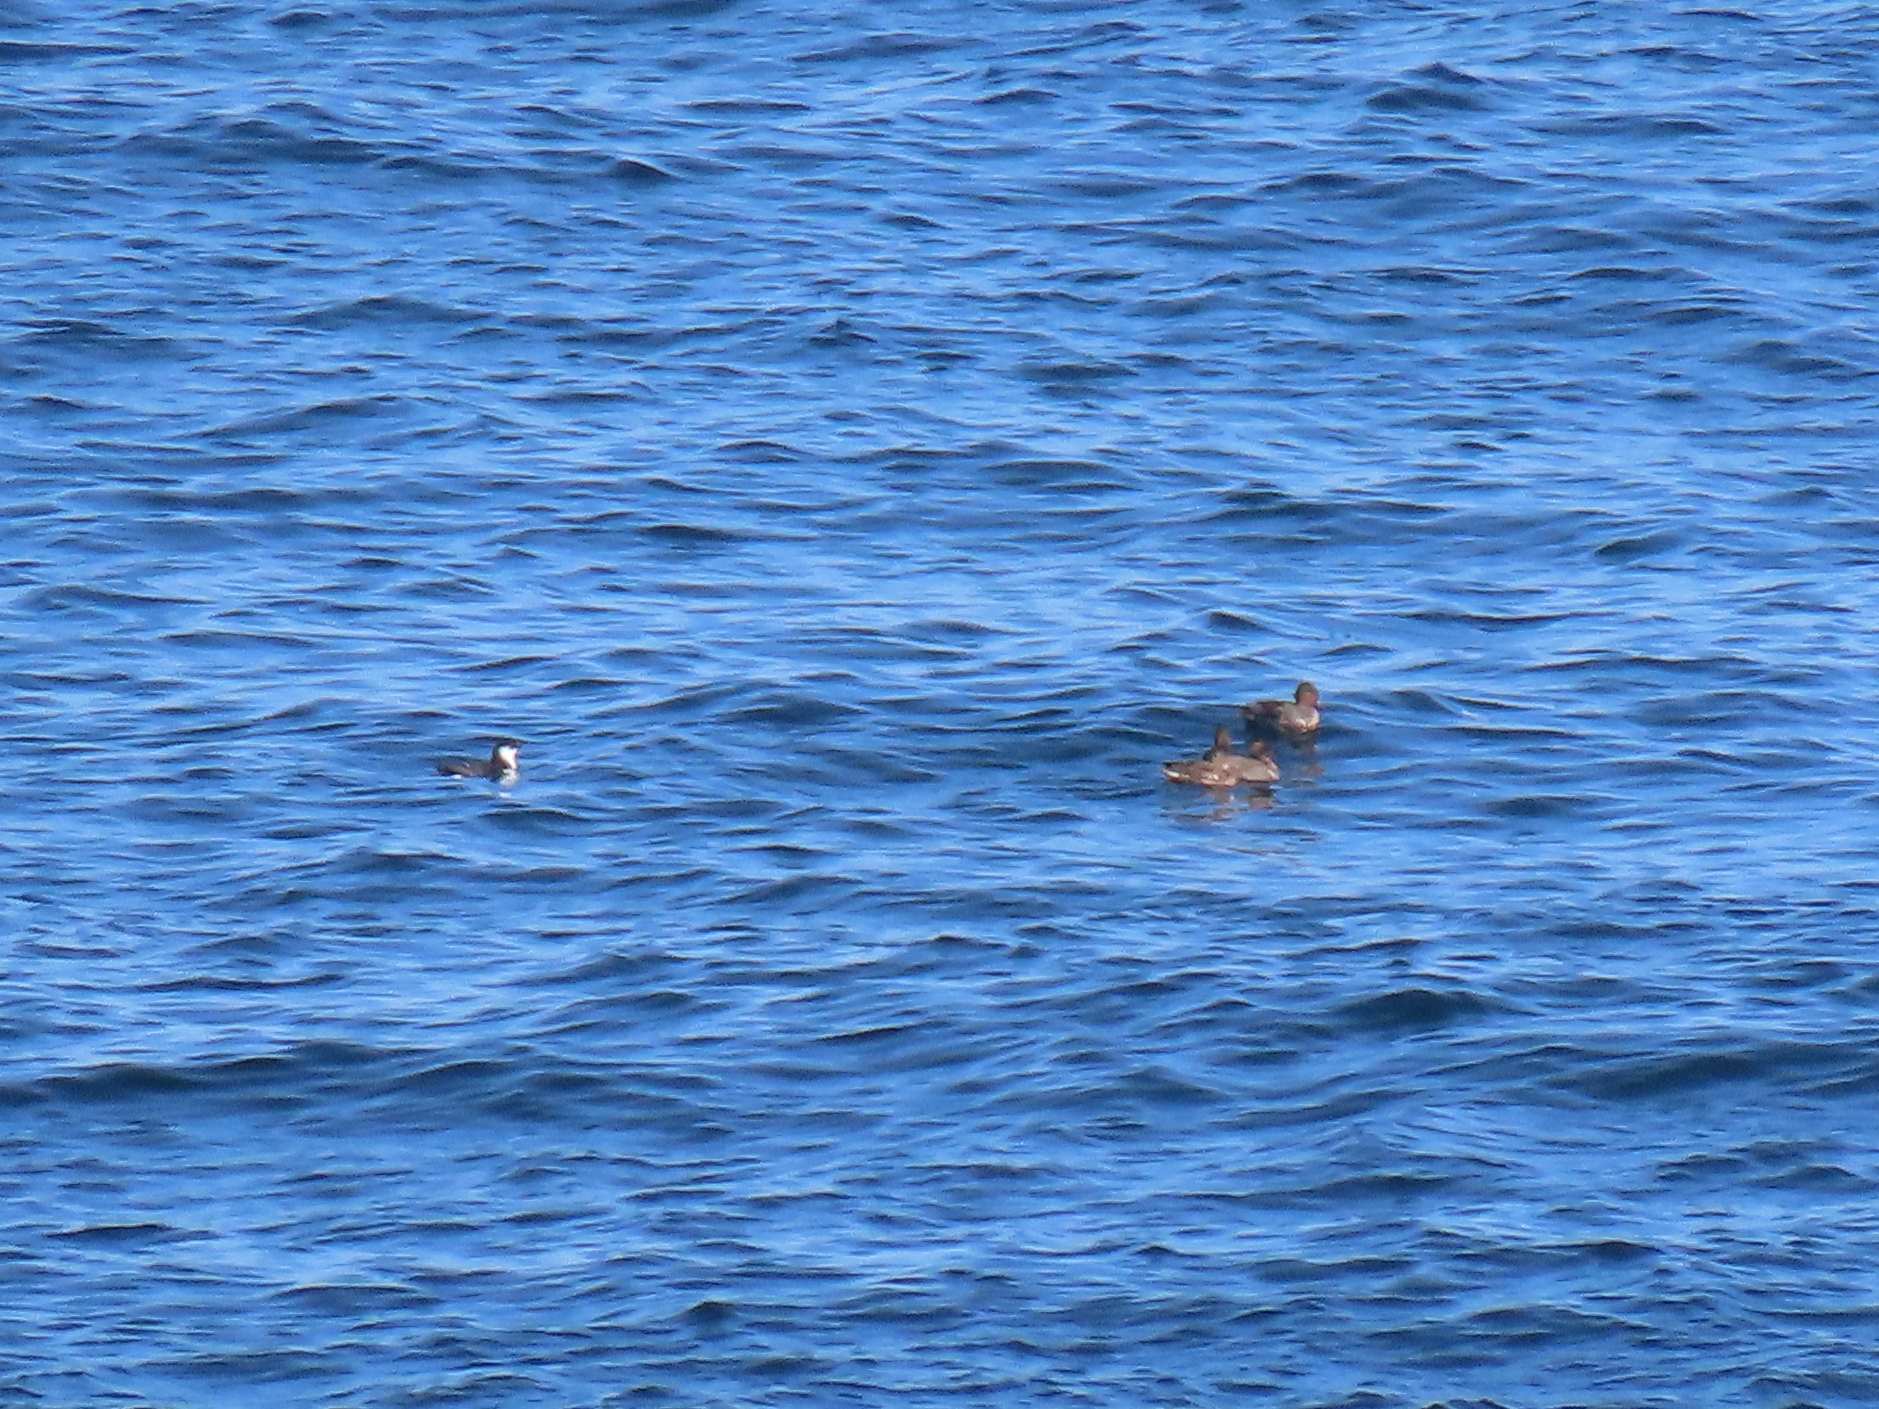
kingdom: Animalia
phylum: Chordata
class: Aves
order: Anseriformes
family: Anatidae
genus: Anas
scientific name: Anas crecca
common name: Eurasian teal
